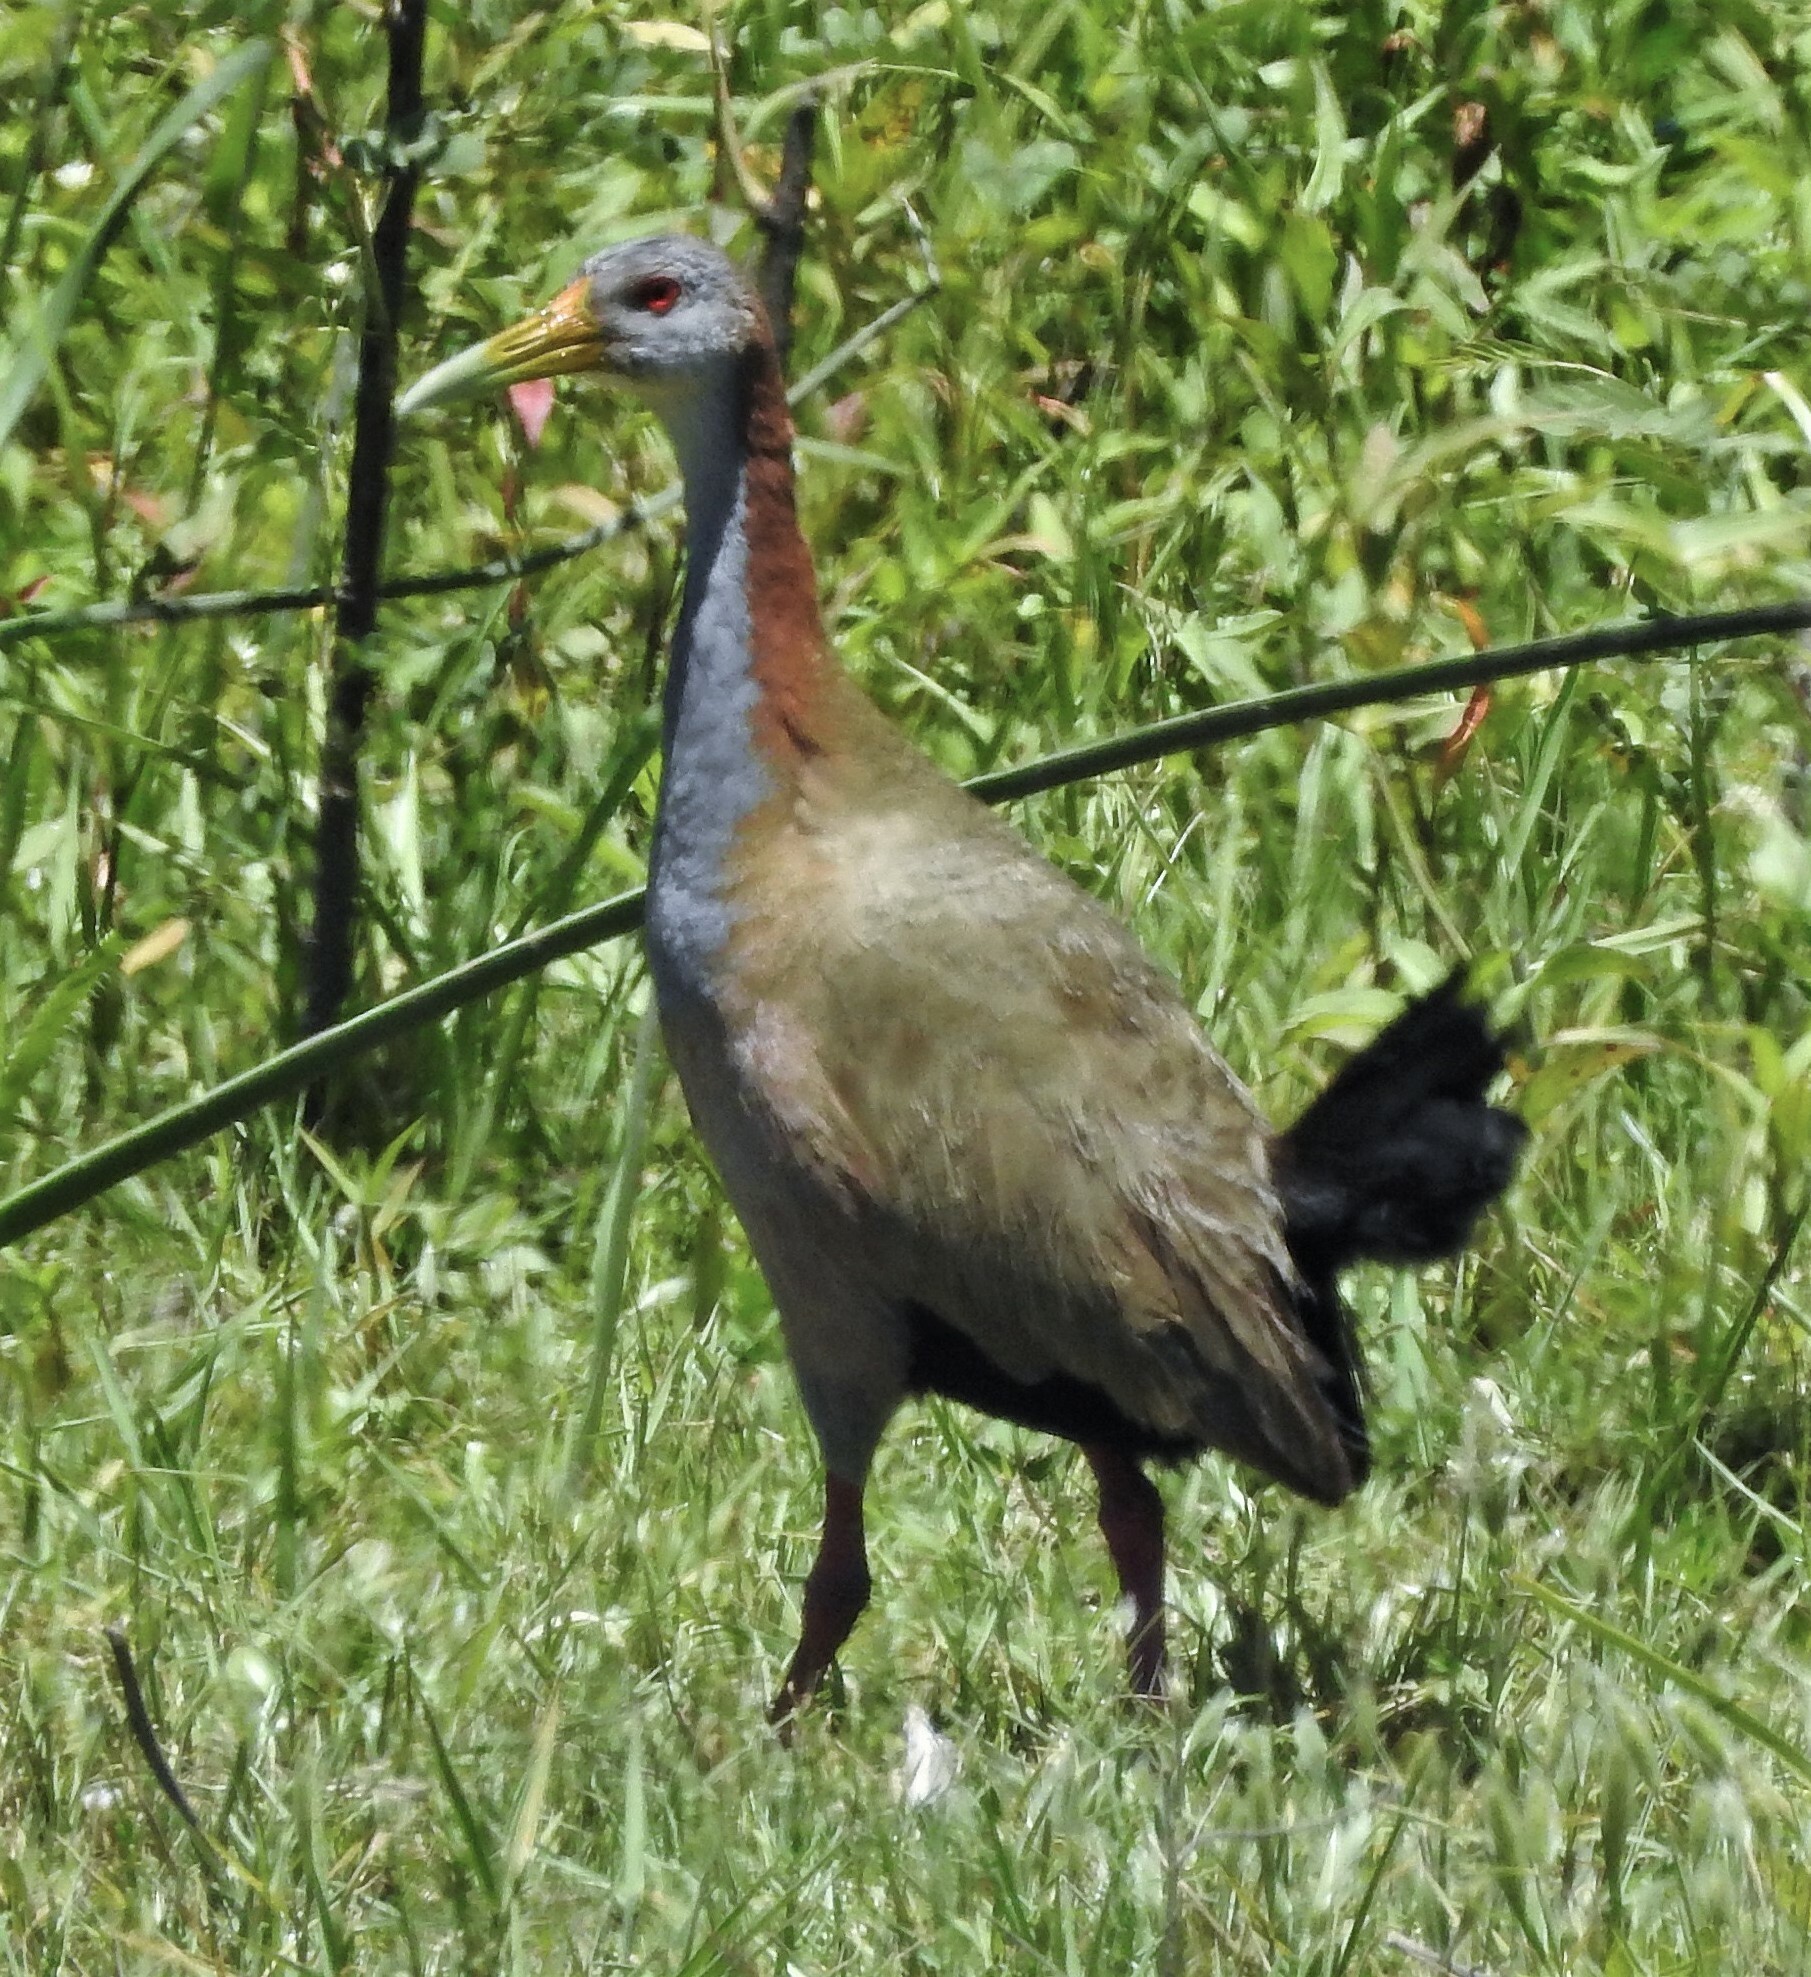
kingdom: Animalia
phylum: Chordata
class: Aves
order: Gruiformes
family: Rallidae
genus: Aramides
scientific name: Aramides ypecaha
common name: Giant wood rail
